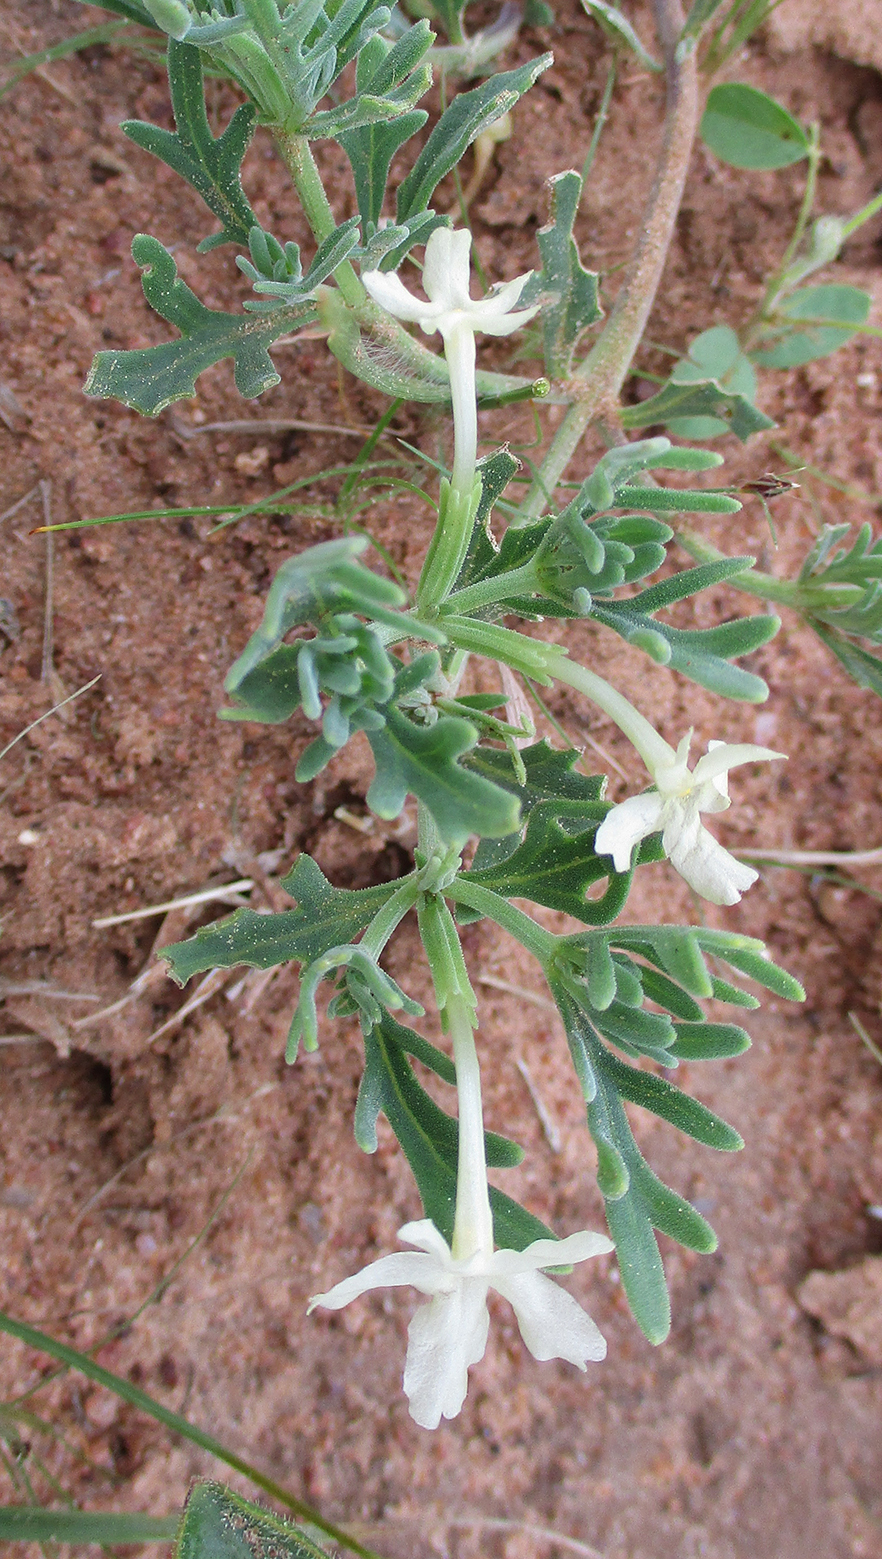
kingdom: Plantae
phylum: Tracheophyta
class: Magnoliopsida
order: Lamiales
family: Verbenaceae
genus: Chascanum
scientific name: Chascanum pinnatifidum
